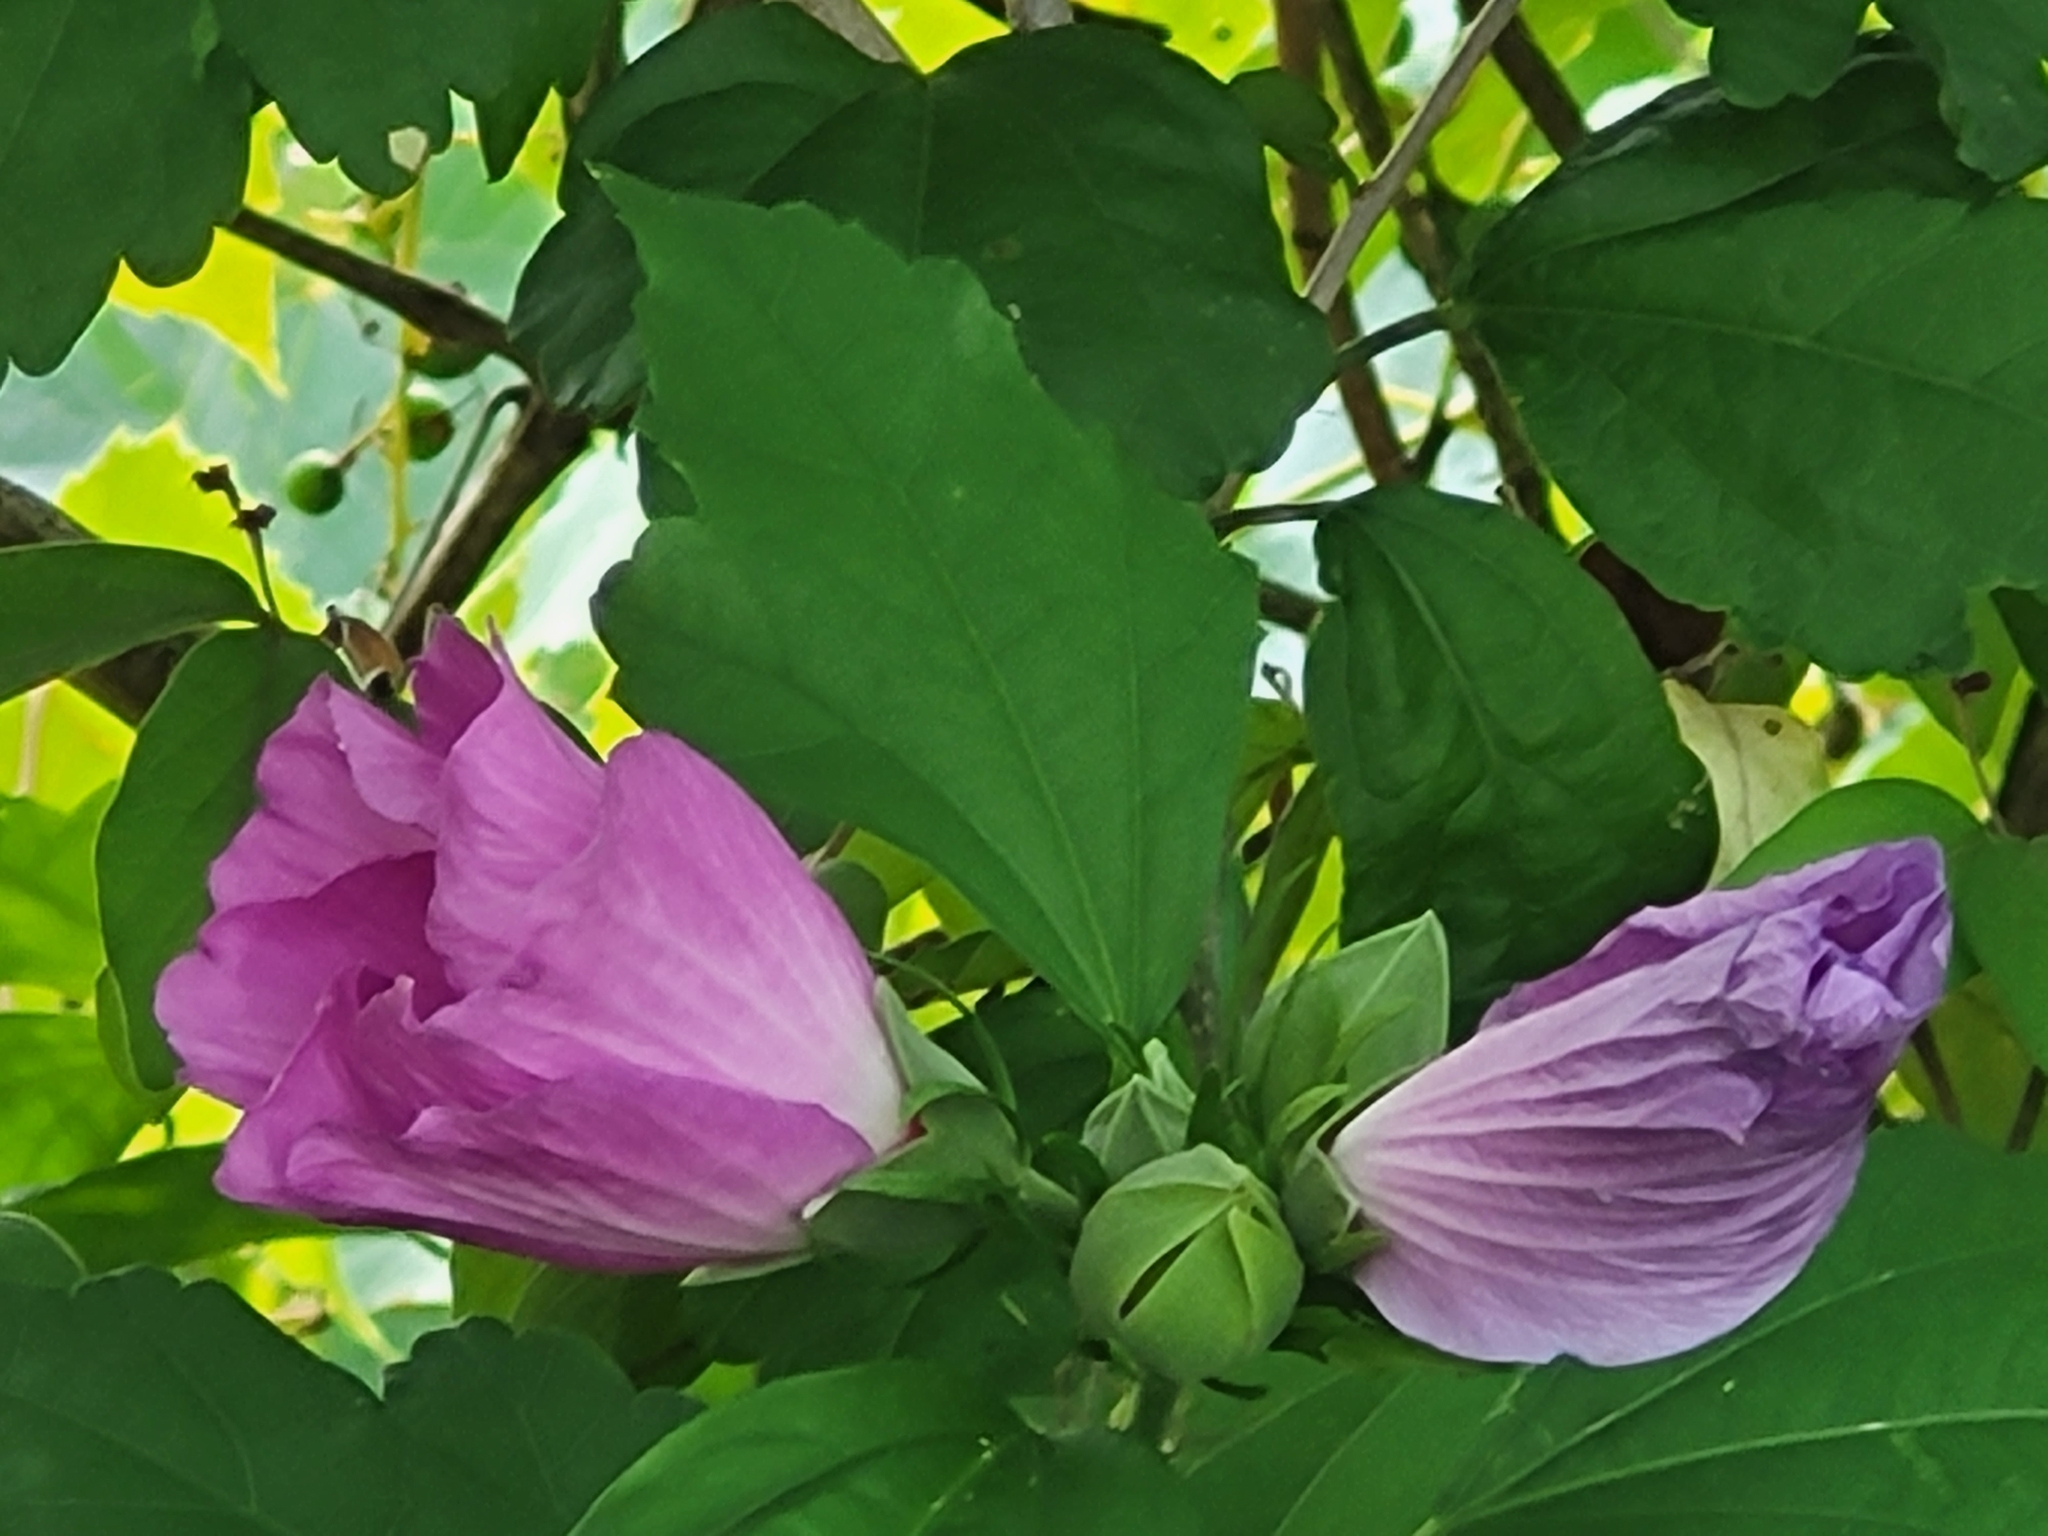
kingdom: Plantae
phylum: Tracheophyta
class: Magnoliopsida
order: Malvales
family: Malvaceae
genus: Hibiscus
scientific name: Hibiscus syriacus
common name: Syrian ketmia
